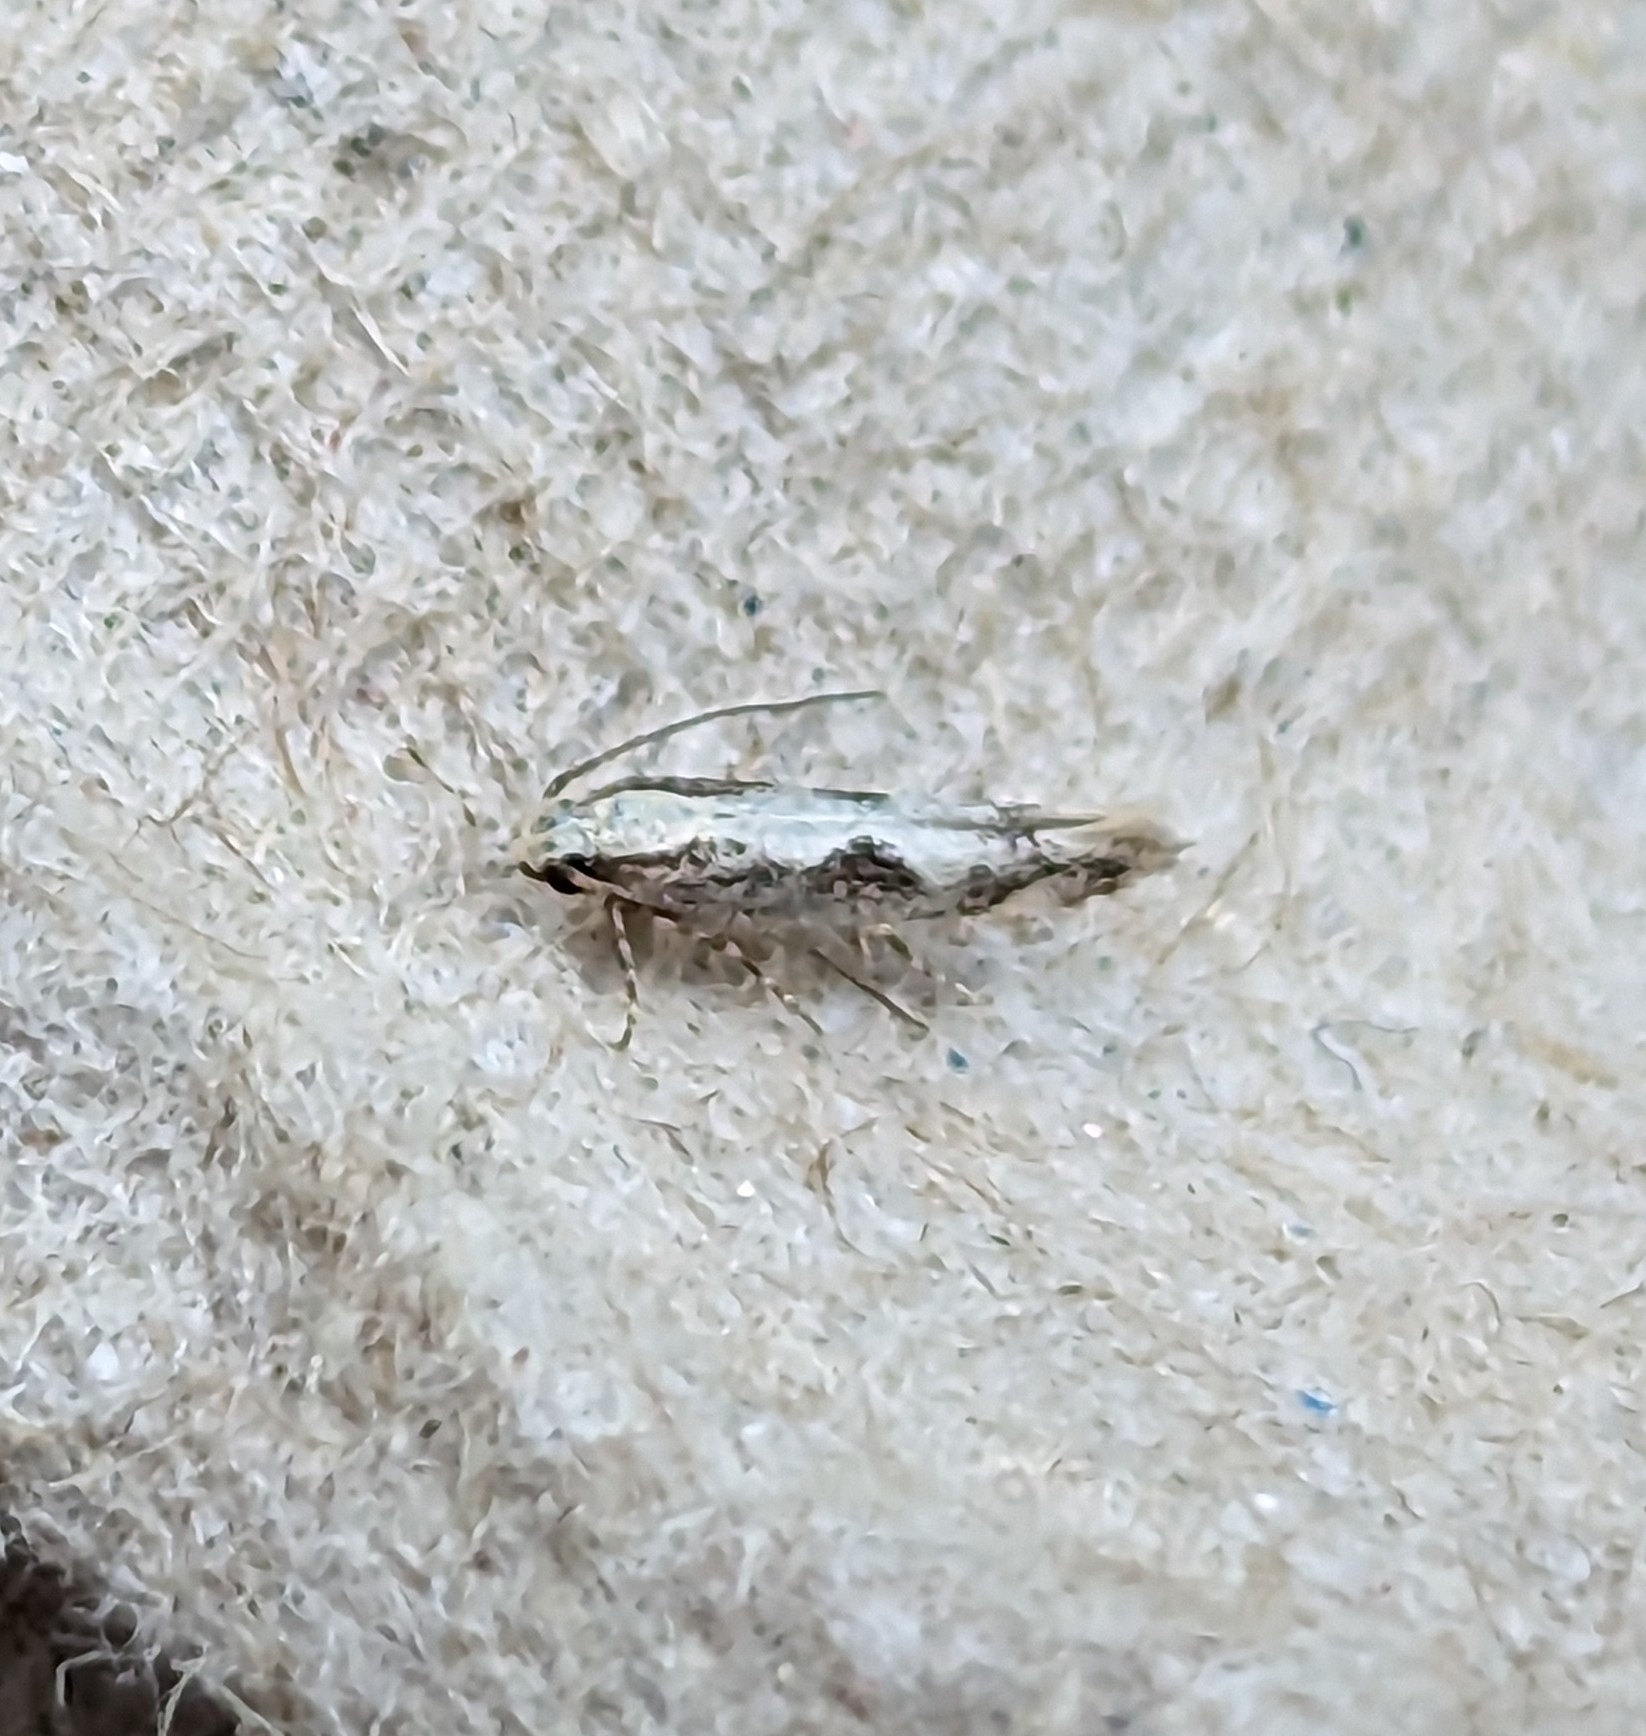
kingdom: Animalia
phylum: Arthropoda
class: Insecta
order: Lepidoptera
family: Gelechiidae
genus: Agnippe
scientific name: Agnippe prunifoliella
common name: Skunk twirler
